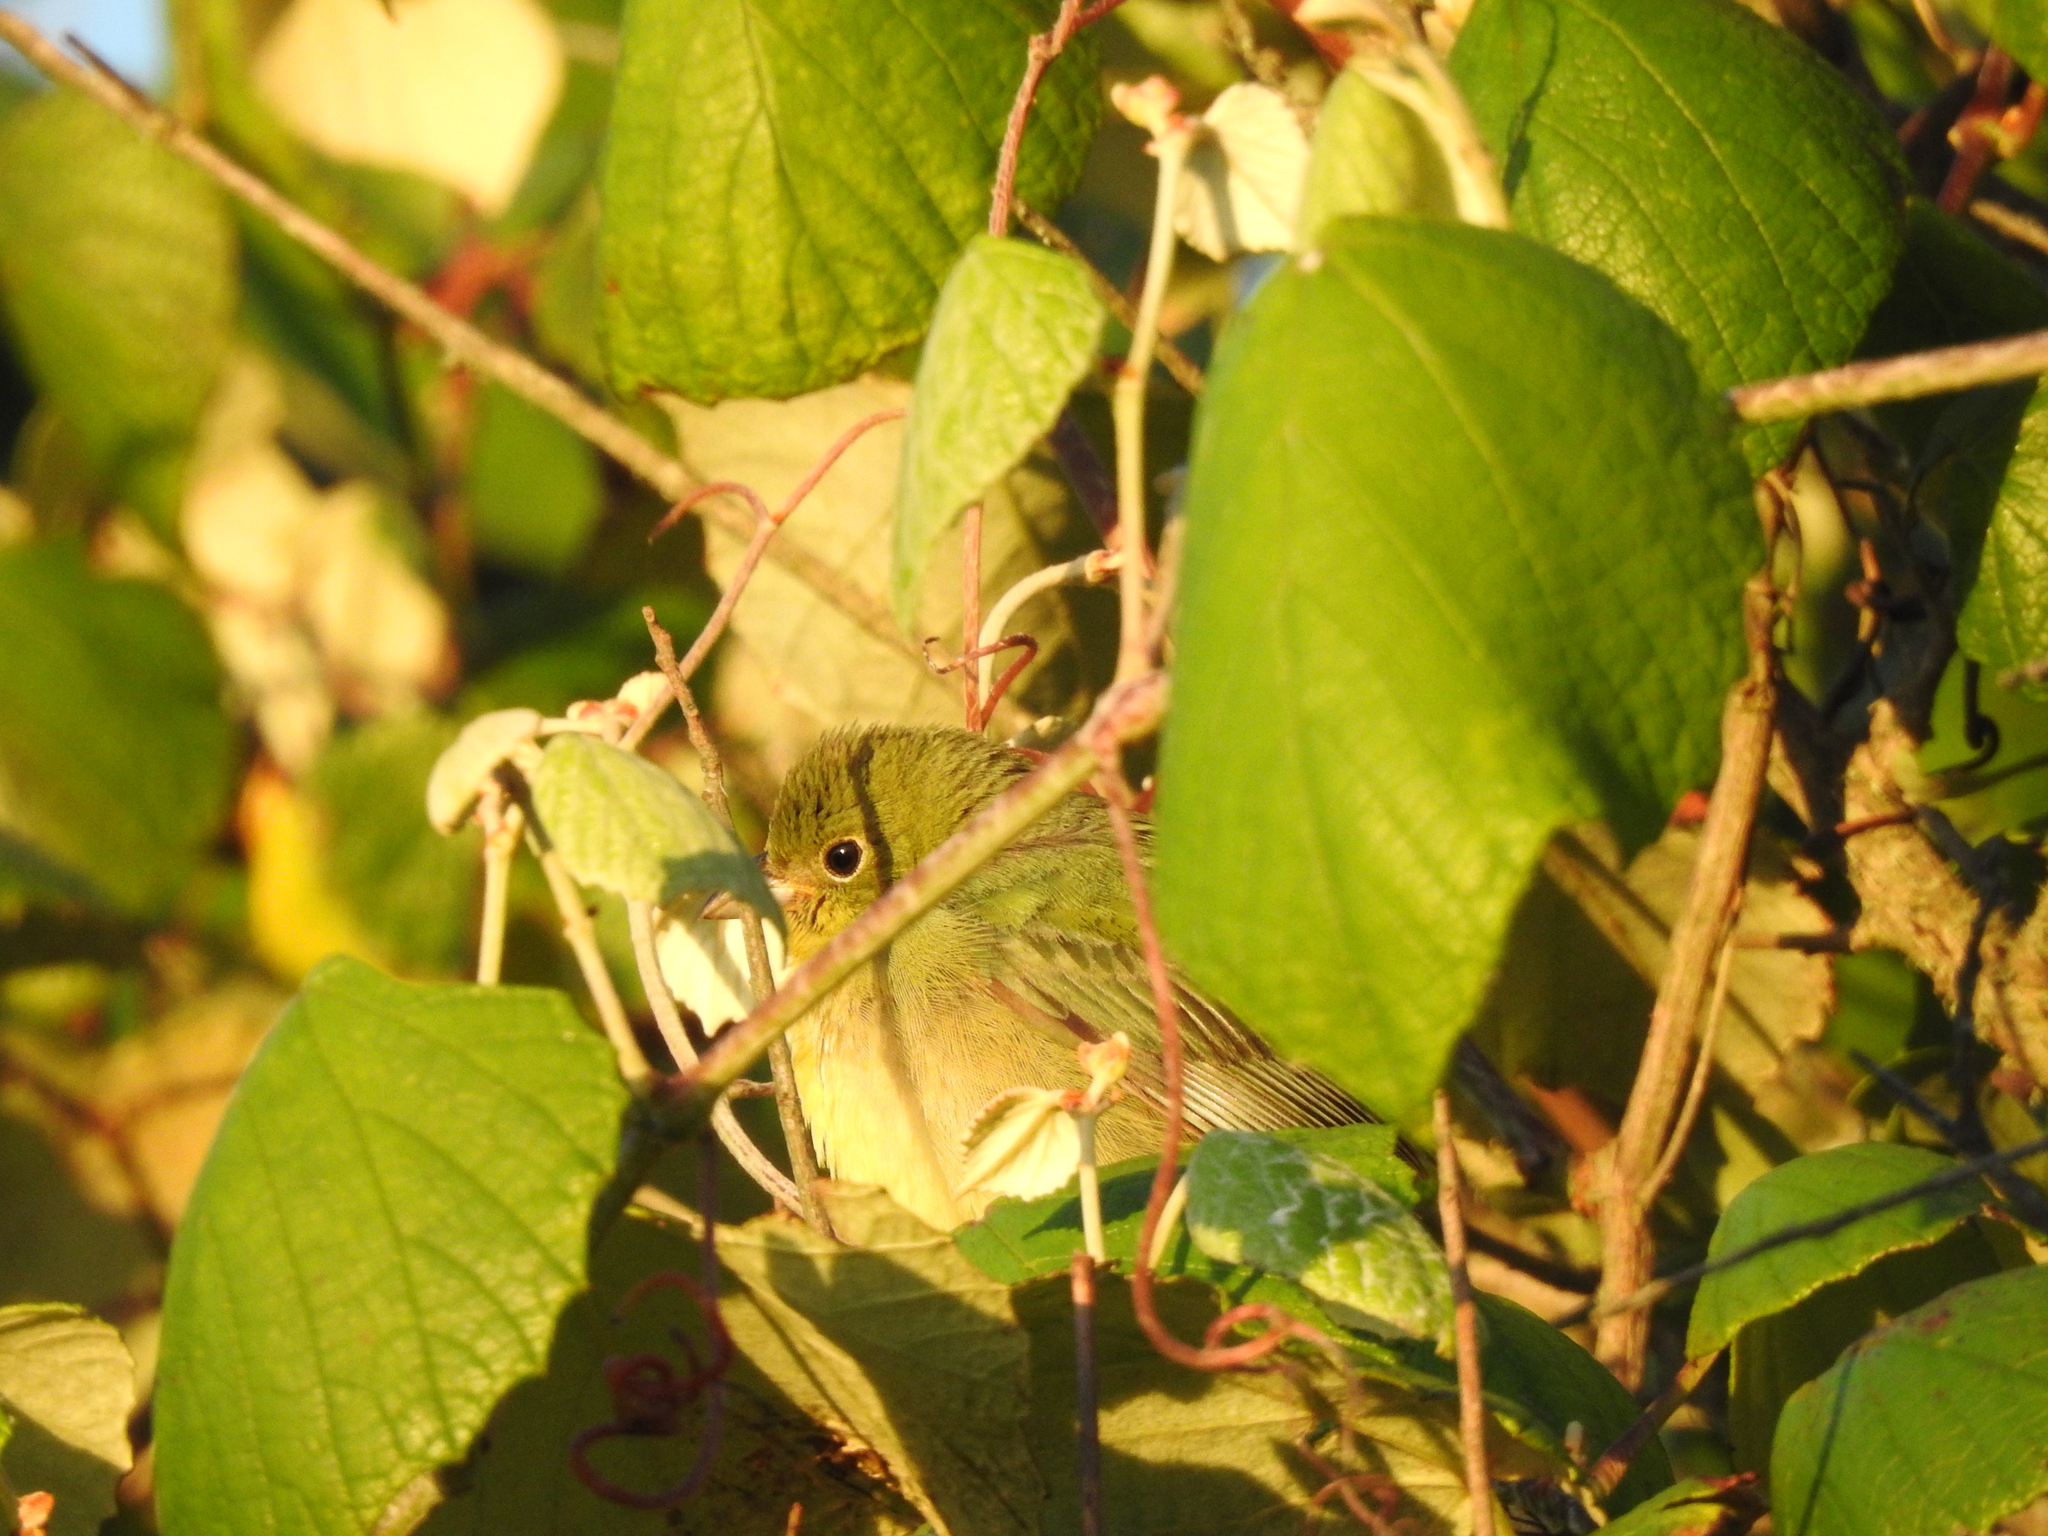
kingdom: Animalia
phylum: Chordata
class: Aves
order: Passeriformes
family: Cardinalidae
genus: Passerina
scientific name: Passerina ciris
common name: Painted bunting
